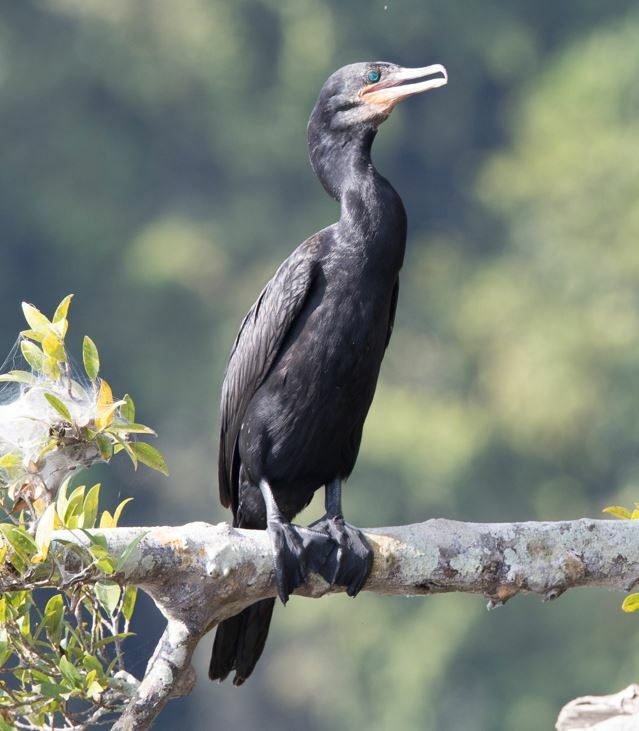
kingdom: Animalia
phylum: Chordata
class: Aves
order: Suliformes
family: Phalacrocoracidae
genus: Phalacrocorax
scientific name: Phalacrocorax brasilianus
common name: Neotropic cormorant
